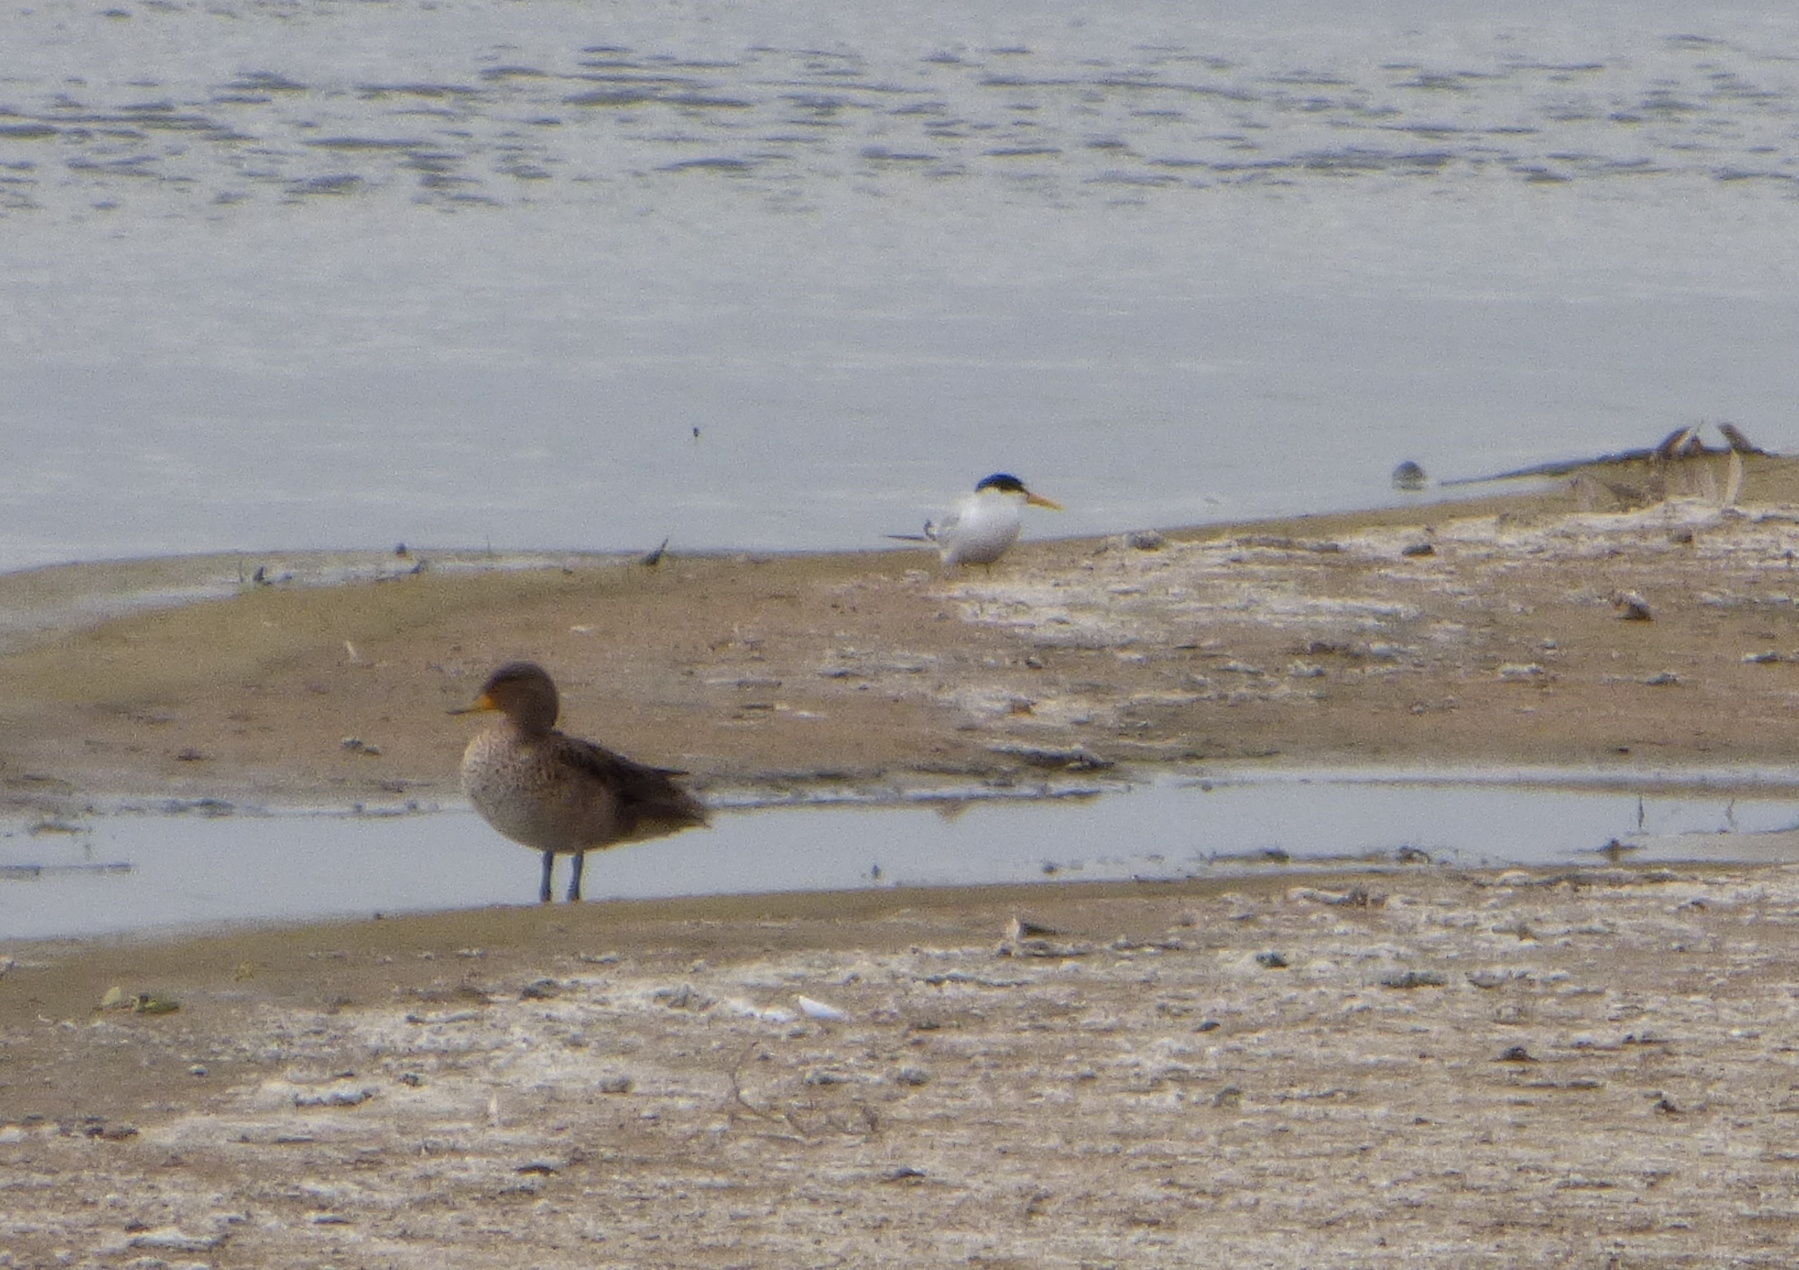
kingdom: Animalia
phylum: Chordata
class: Aves
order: Charadriiformes
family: Laridae
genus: Sternula
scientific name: Sternula superciliaris
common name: Yellow-billed tern
